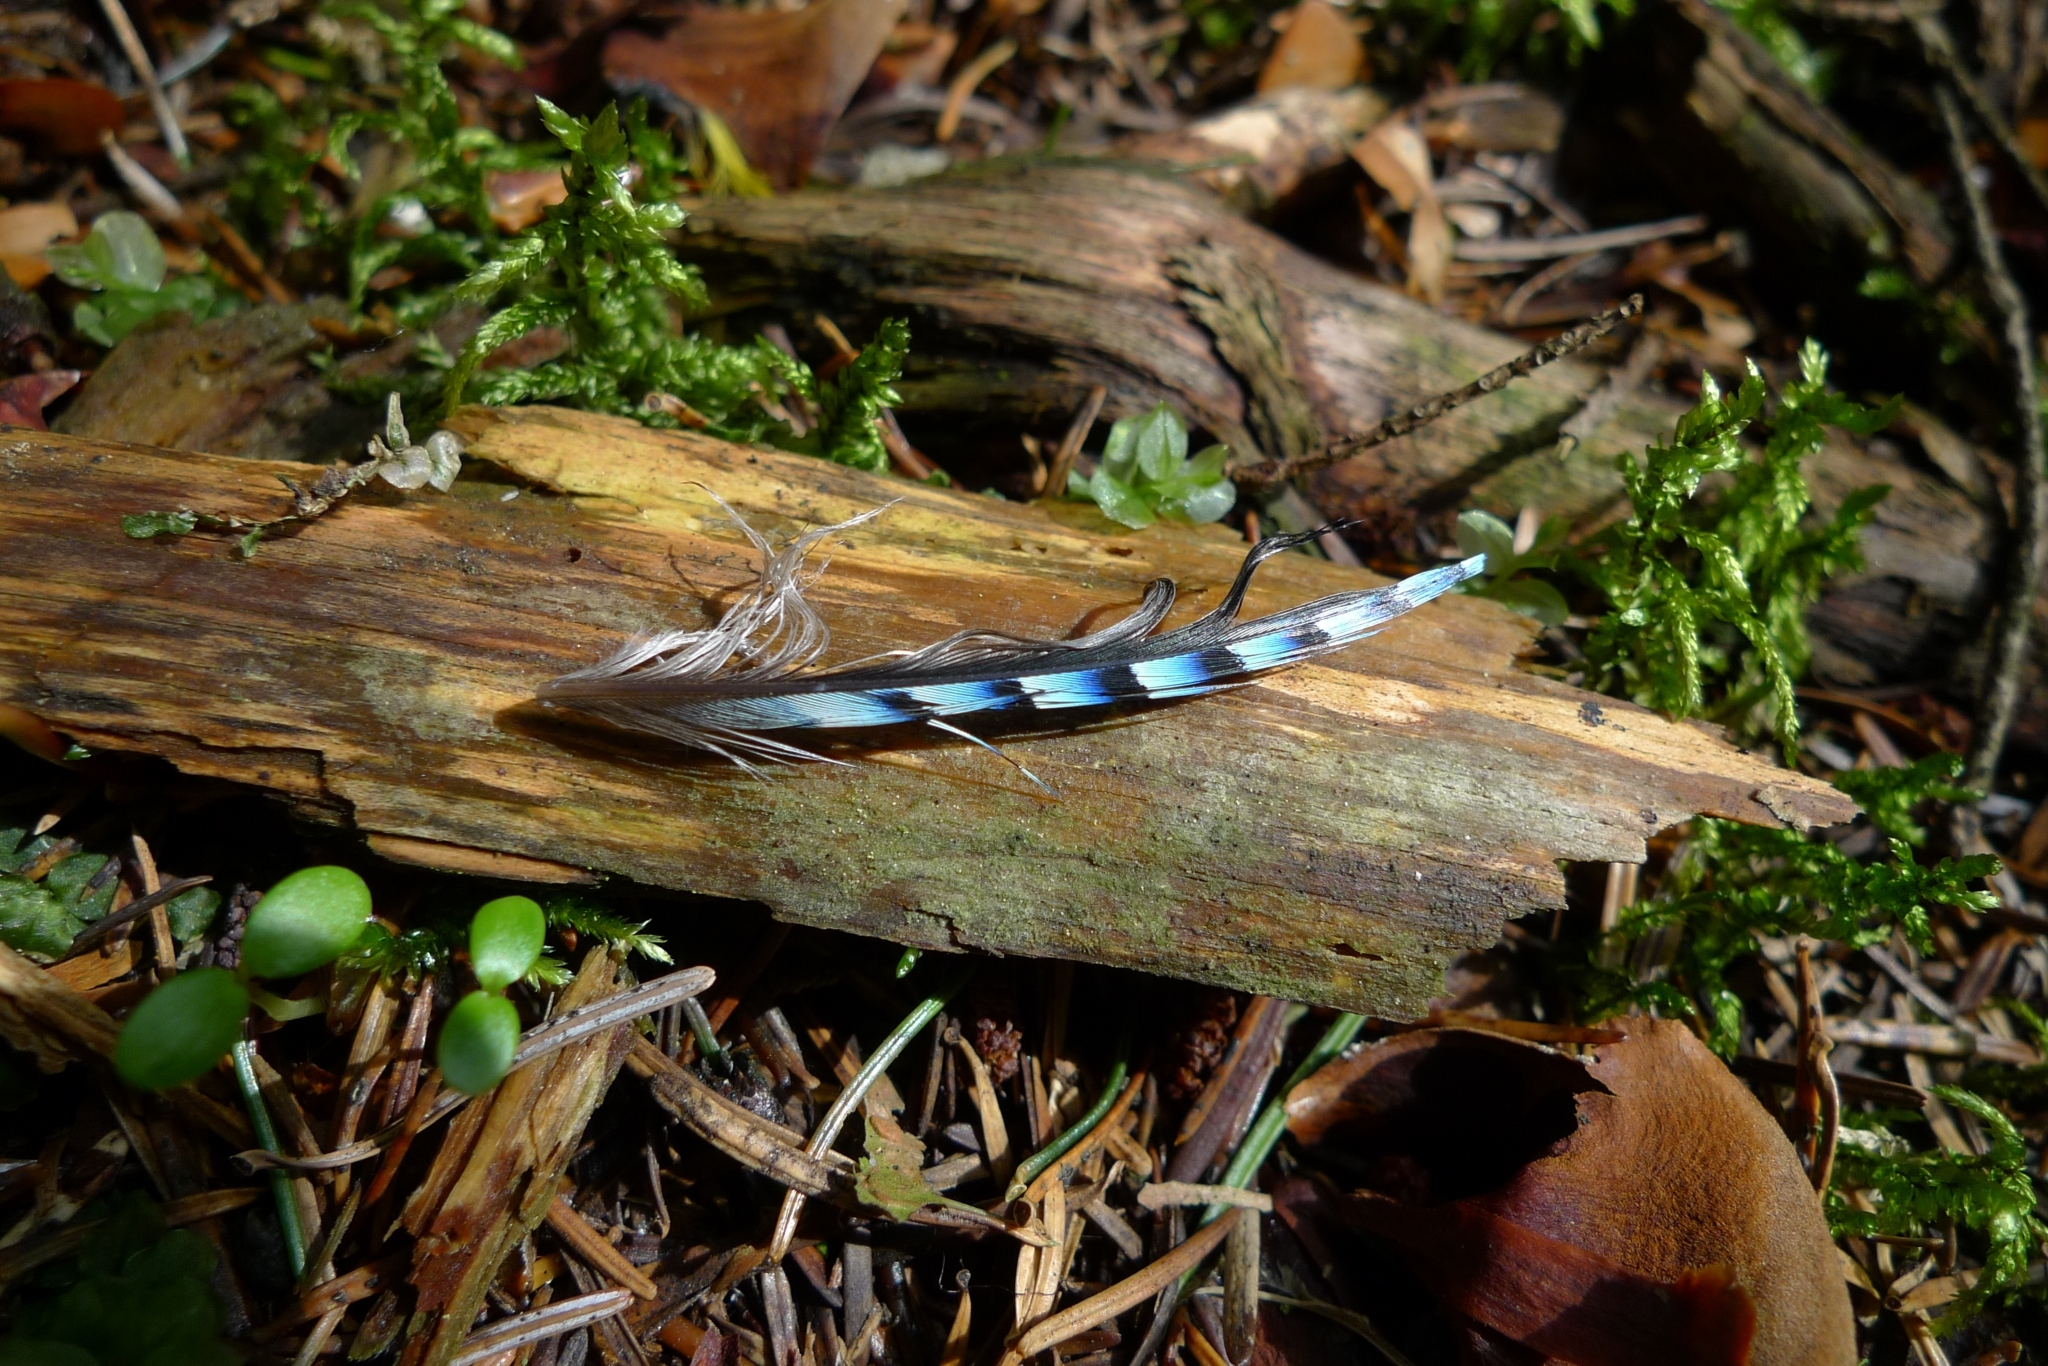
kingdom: Animalia
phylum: Chordata
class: Aves
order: Passeriformes
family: Corvidae
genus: Garrulus
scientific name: Garrulus glandarius
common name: Eurasian jay
